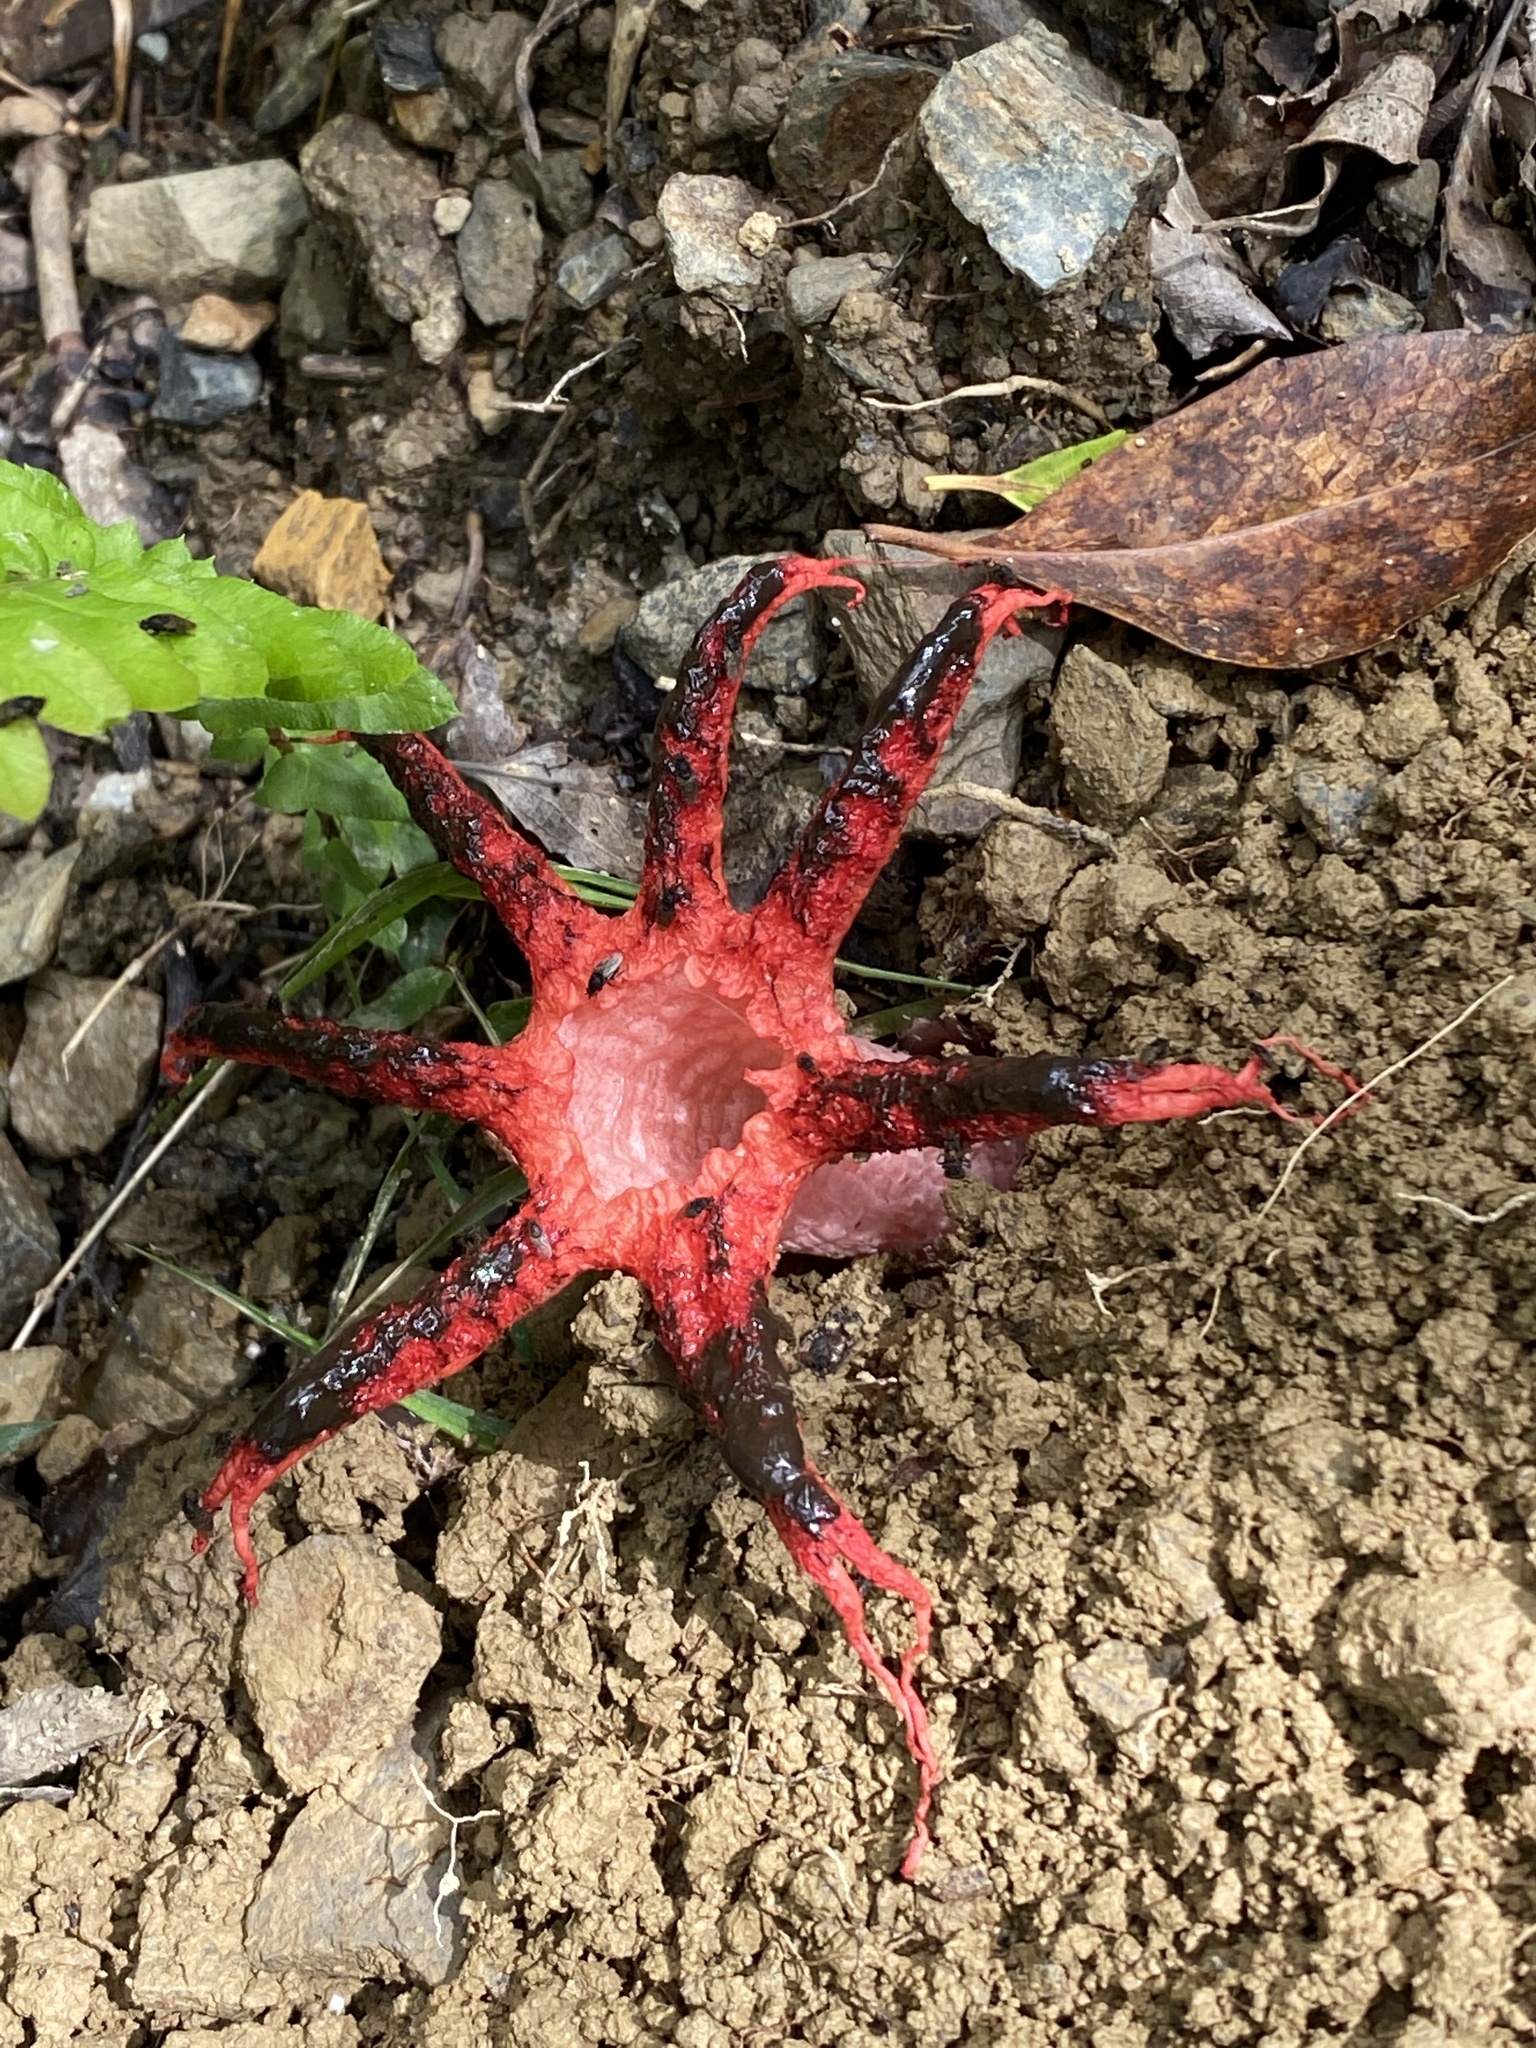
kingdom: Fungi
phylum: Basidiomycota
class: Agaricomycetes
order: Phallales
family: Phallaceae
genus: Clathrus
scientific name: Clathrus archeri
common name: Devil's fingers
